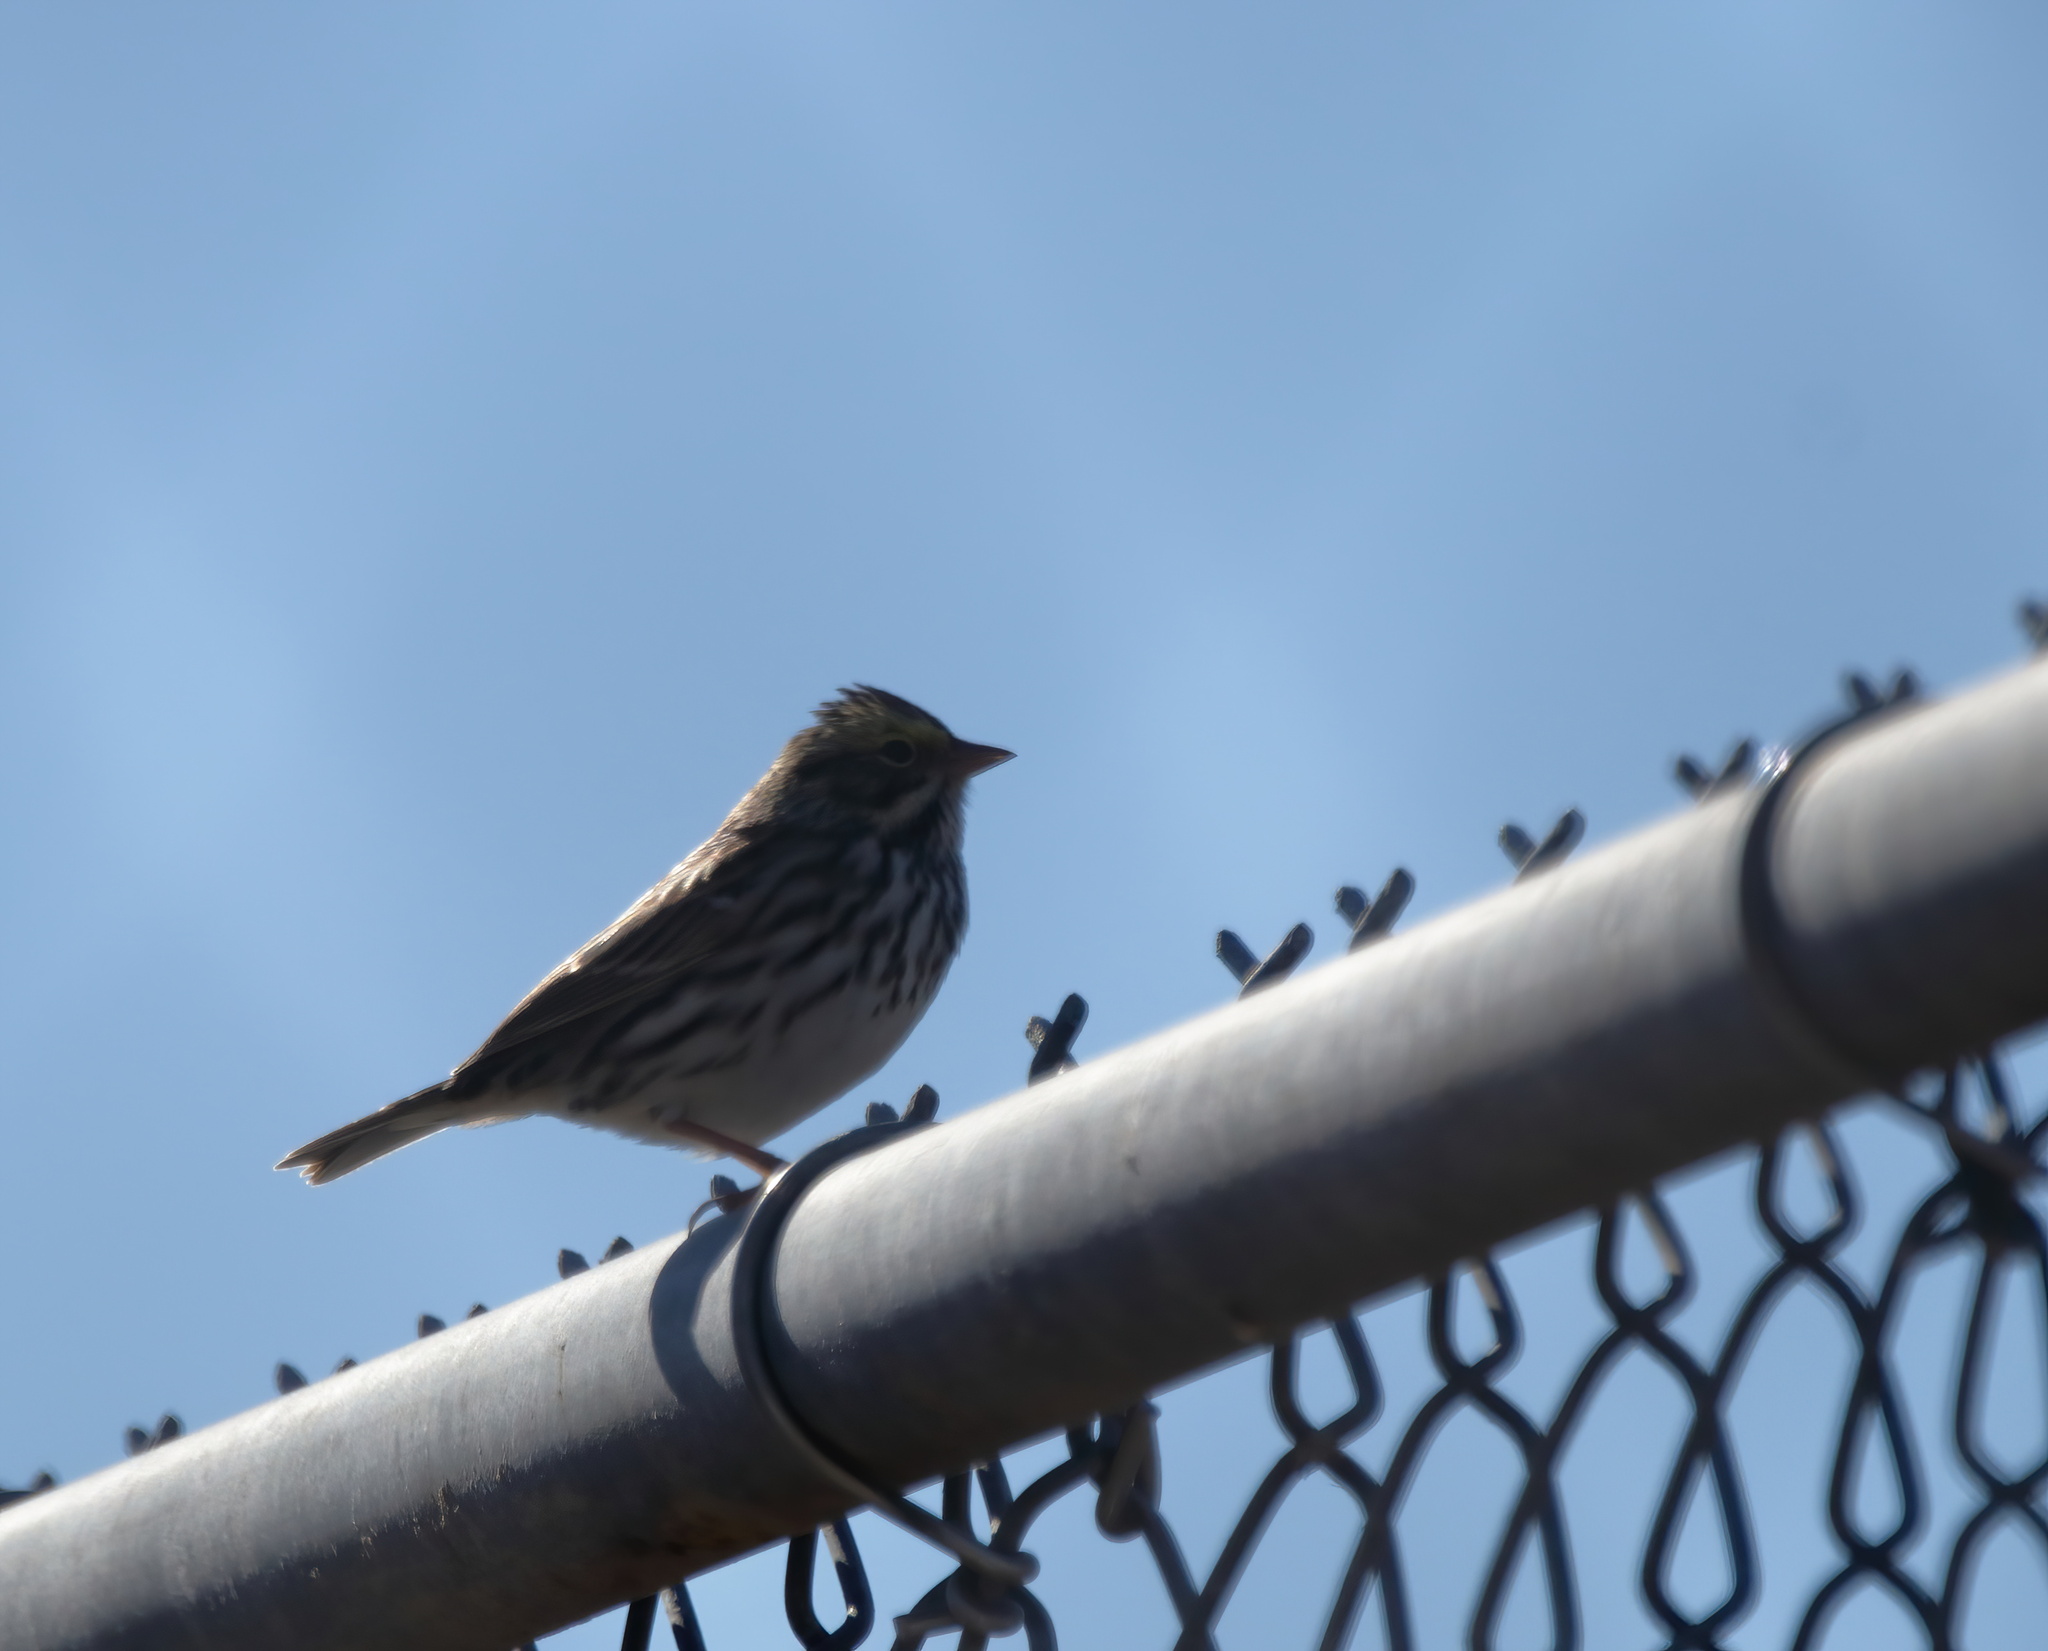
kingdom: Animalia
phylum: Chordata
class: Aves
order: Passeriformes
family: Passerellidae
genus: Passerculus
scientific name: Passerculus sandwichensis
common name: Savannah sparrow
